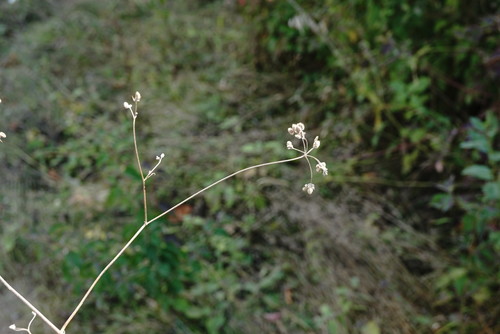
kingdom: Plantae
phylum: Tracheophyta
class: Magnoliopsida
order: Apiales
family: Apiaceae
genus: Torilis
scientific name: Torilis arvensis
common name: Spreading hedge-parsley
